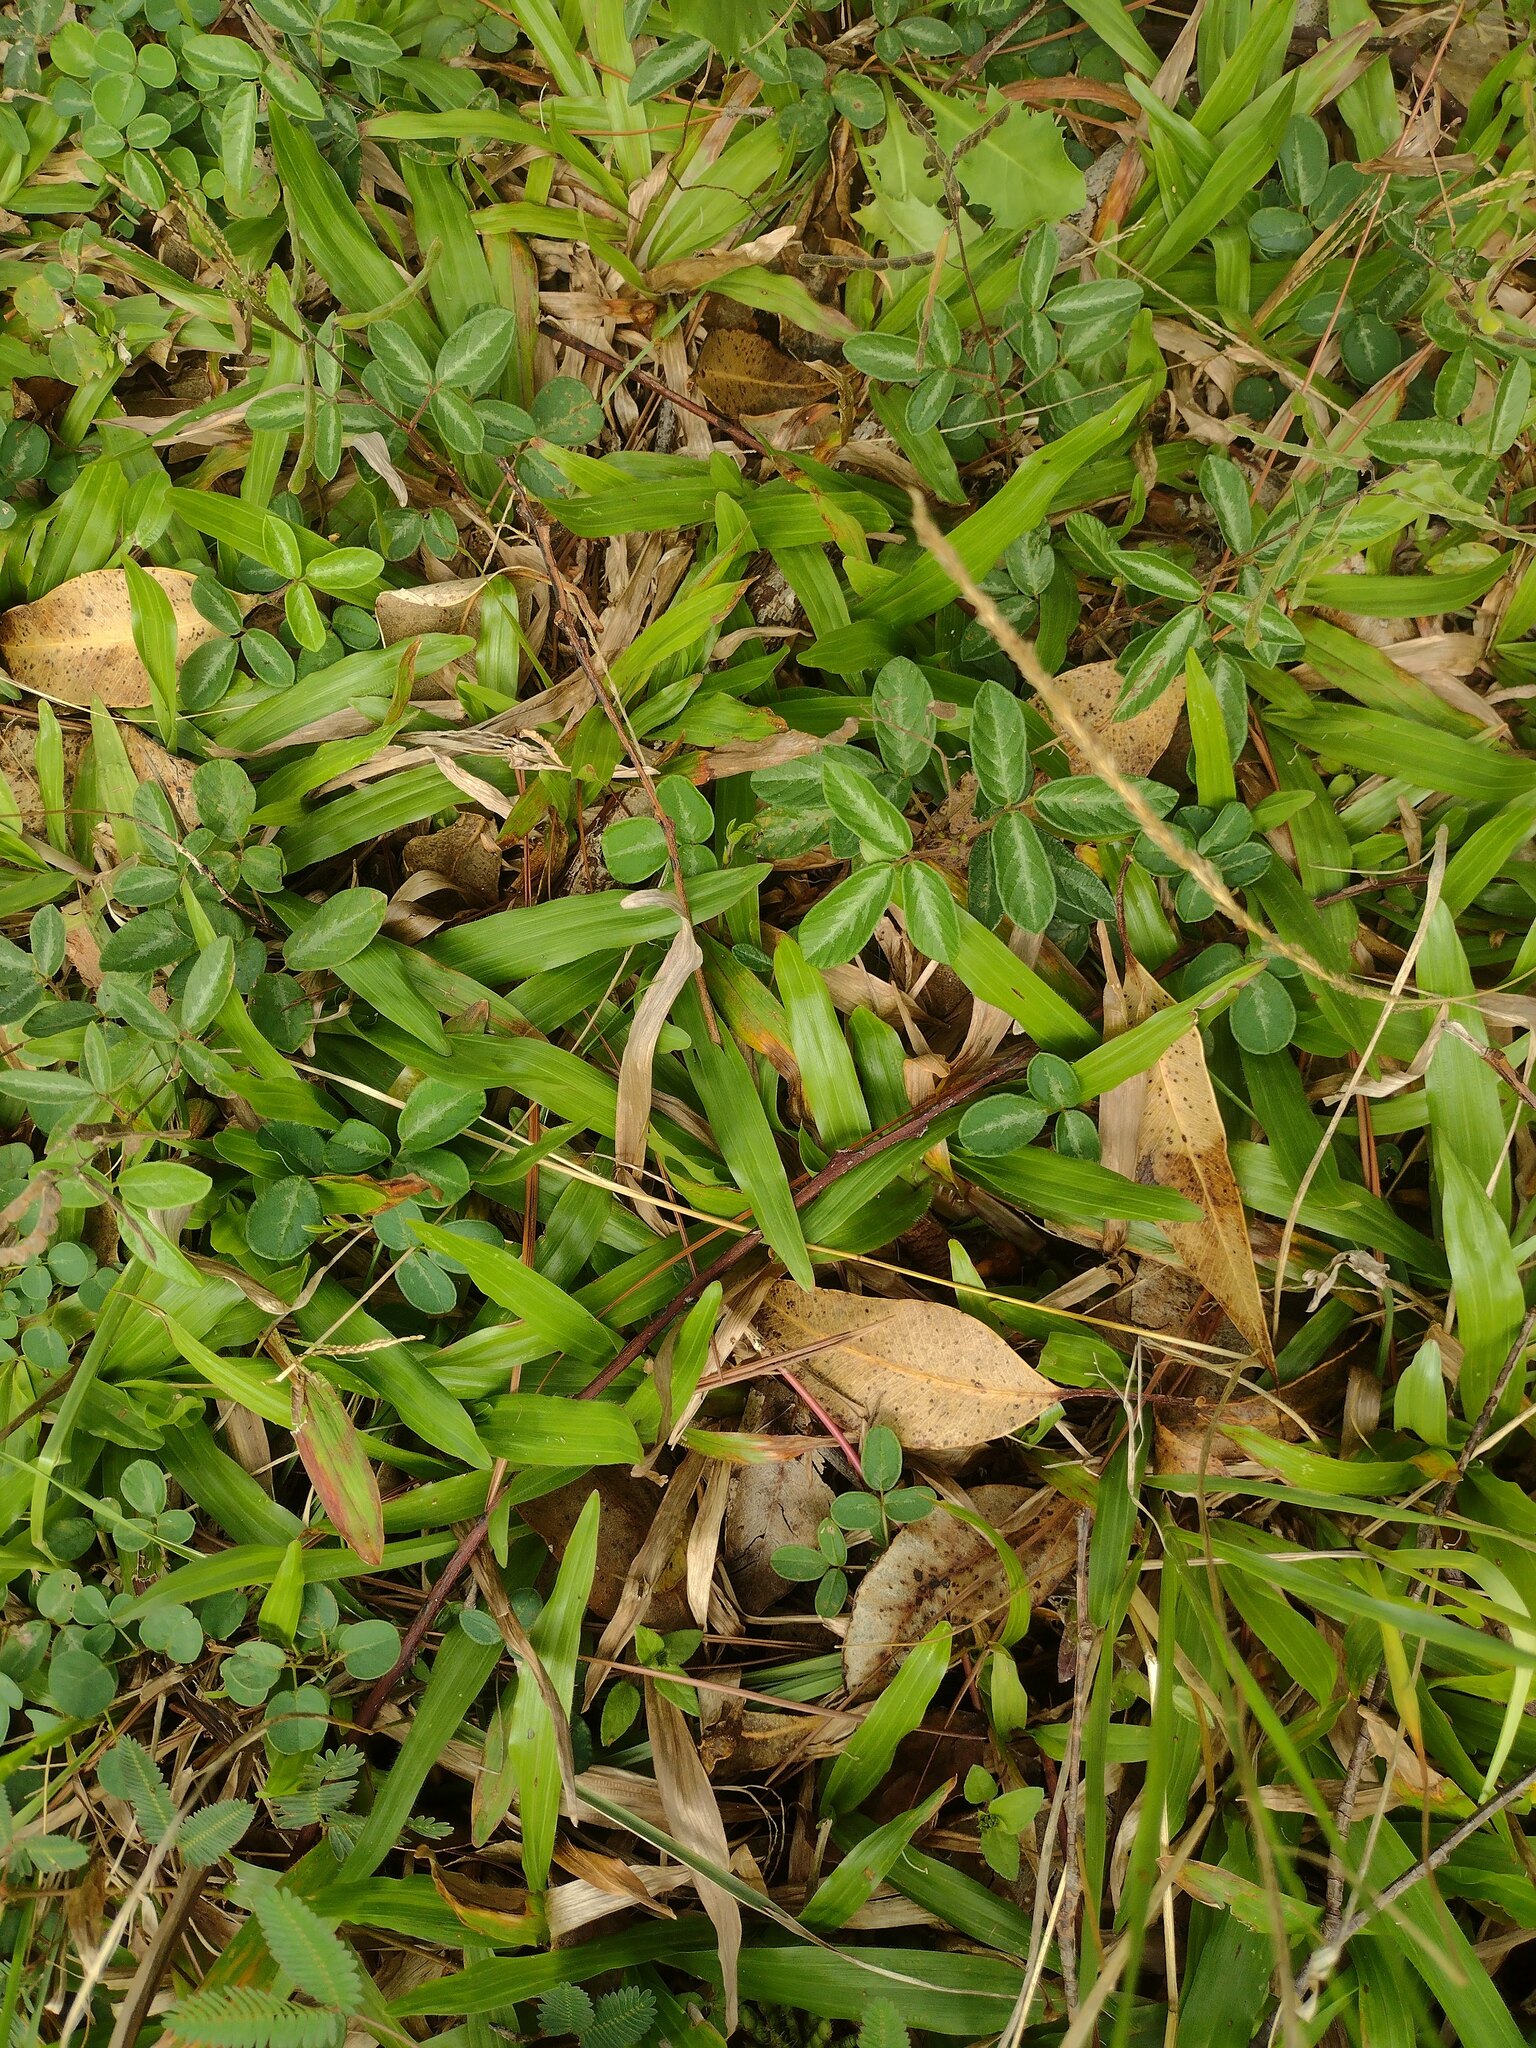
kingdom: Plantae
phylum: Tracheophyta
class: Liliopsida
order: Poales
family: Poaceae
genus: Axonopus
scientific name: Axonopus compressus
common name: American carpet grass
